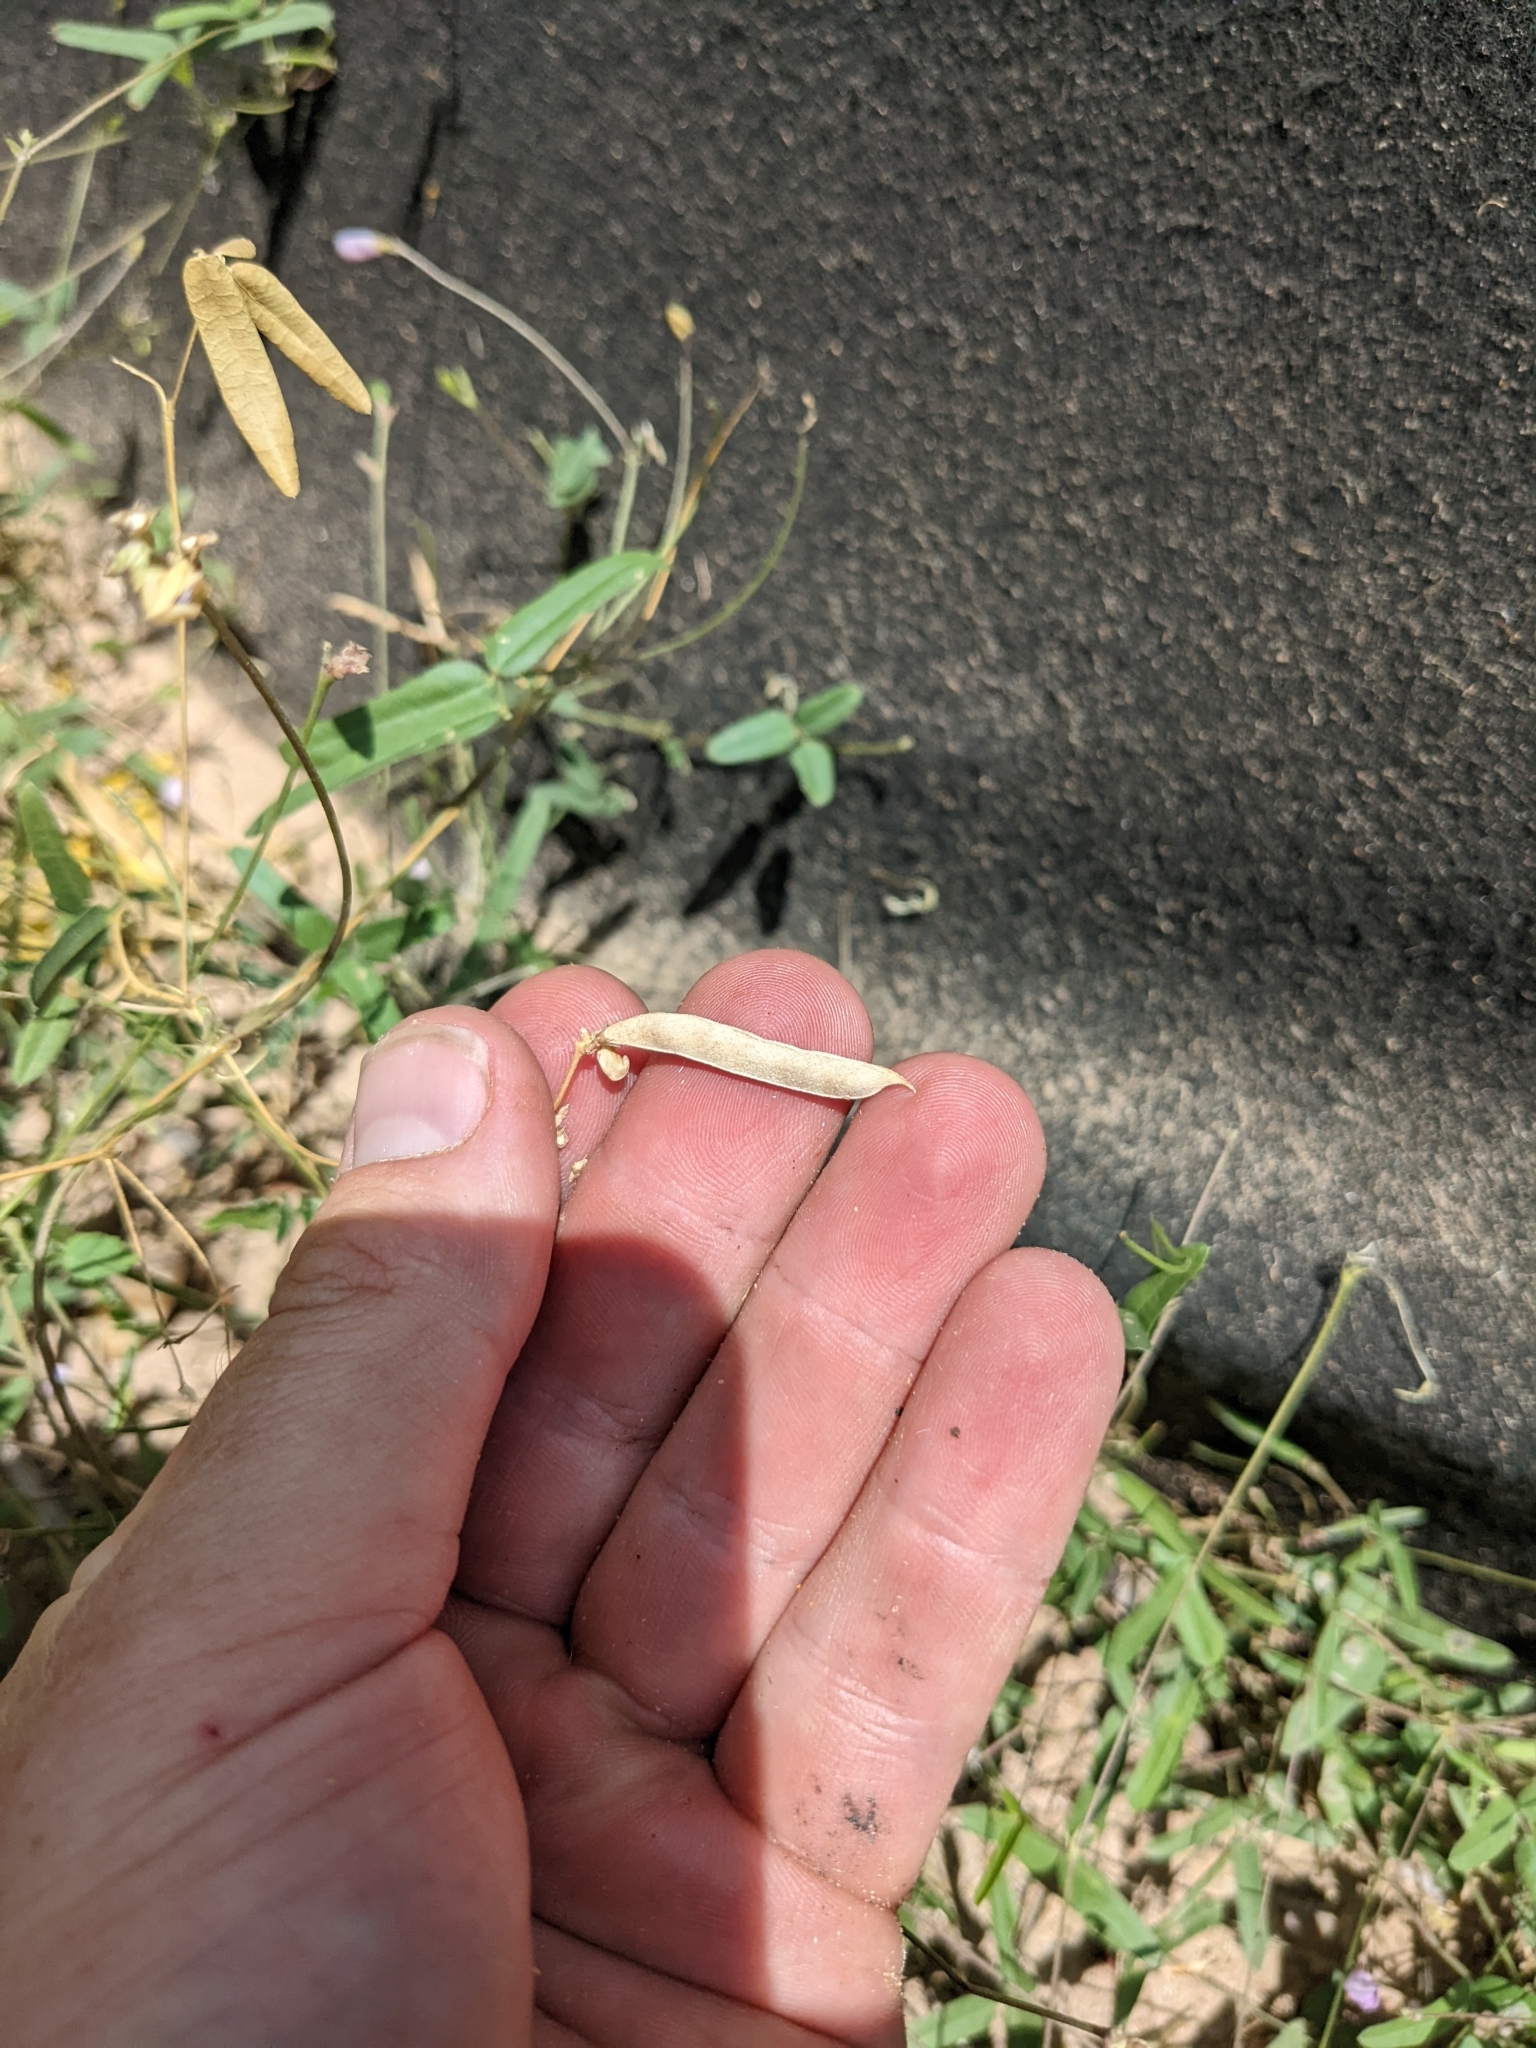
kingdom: Plantae
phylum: Tracheophyta
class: Magnoliopsida
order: Fabales
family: Fabaceae
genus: Strophostyles
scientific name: Strophostyles leiosperma
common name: Smooth-seed wild bean
